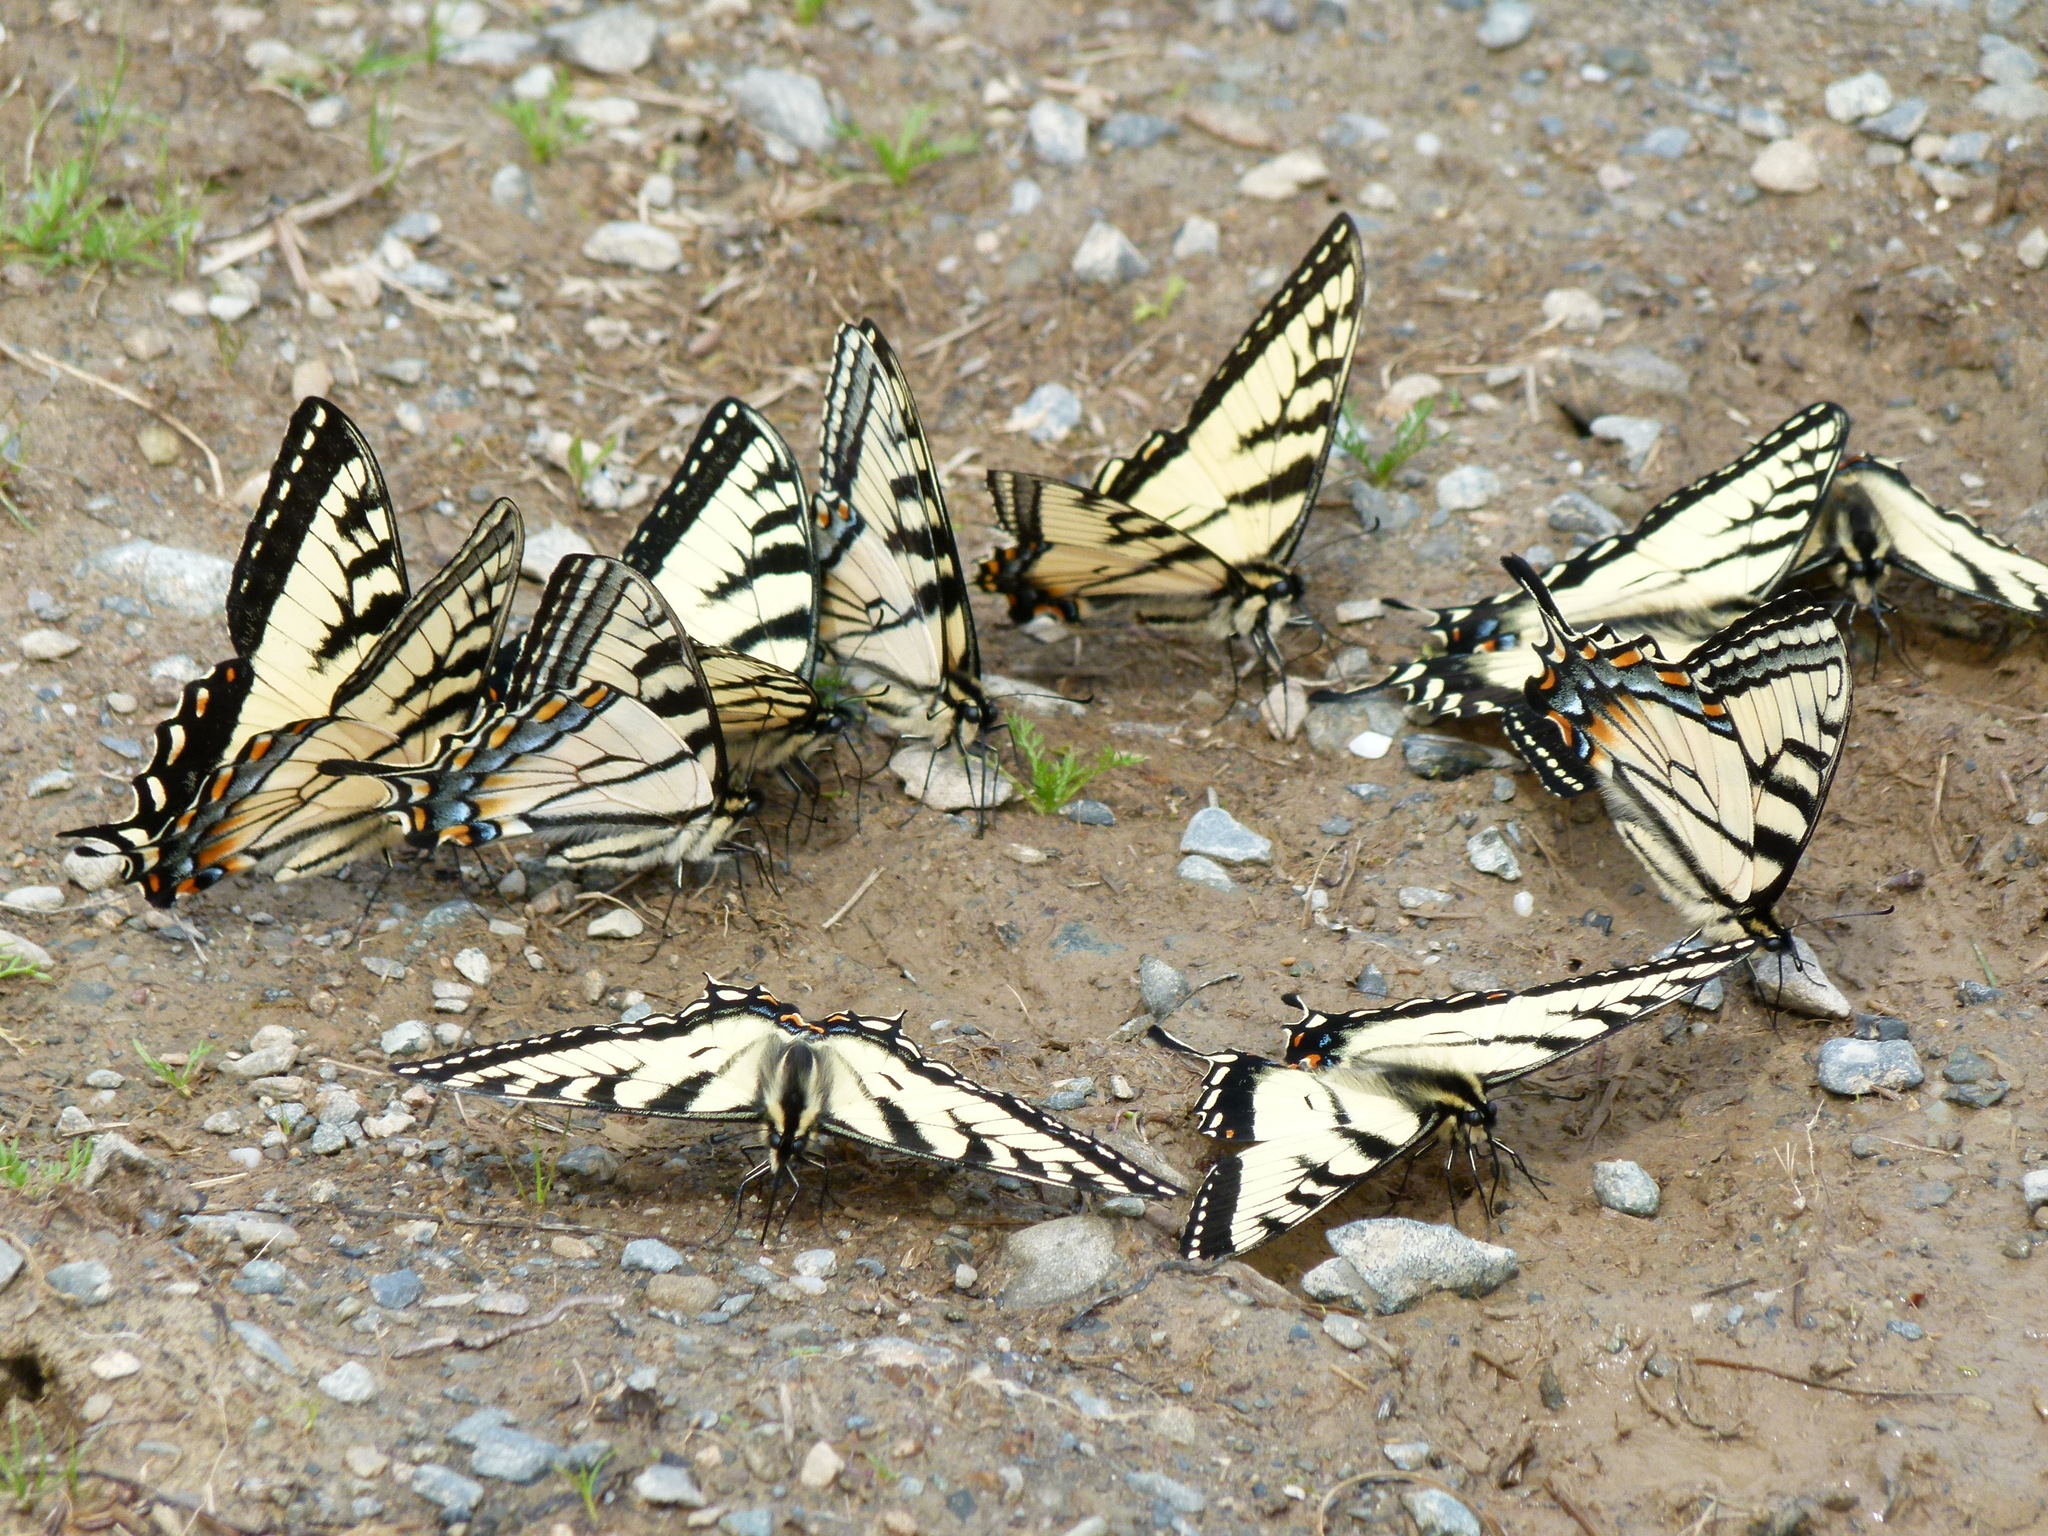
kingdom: Animalia
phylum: Arthropoda
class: Insecta
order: Lepidoptera
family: Papilionidae
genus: Papilio
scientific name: Papilio canadensis
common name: Canadian tiger swallowtail
